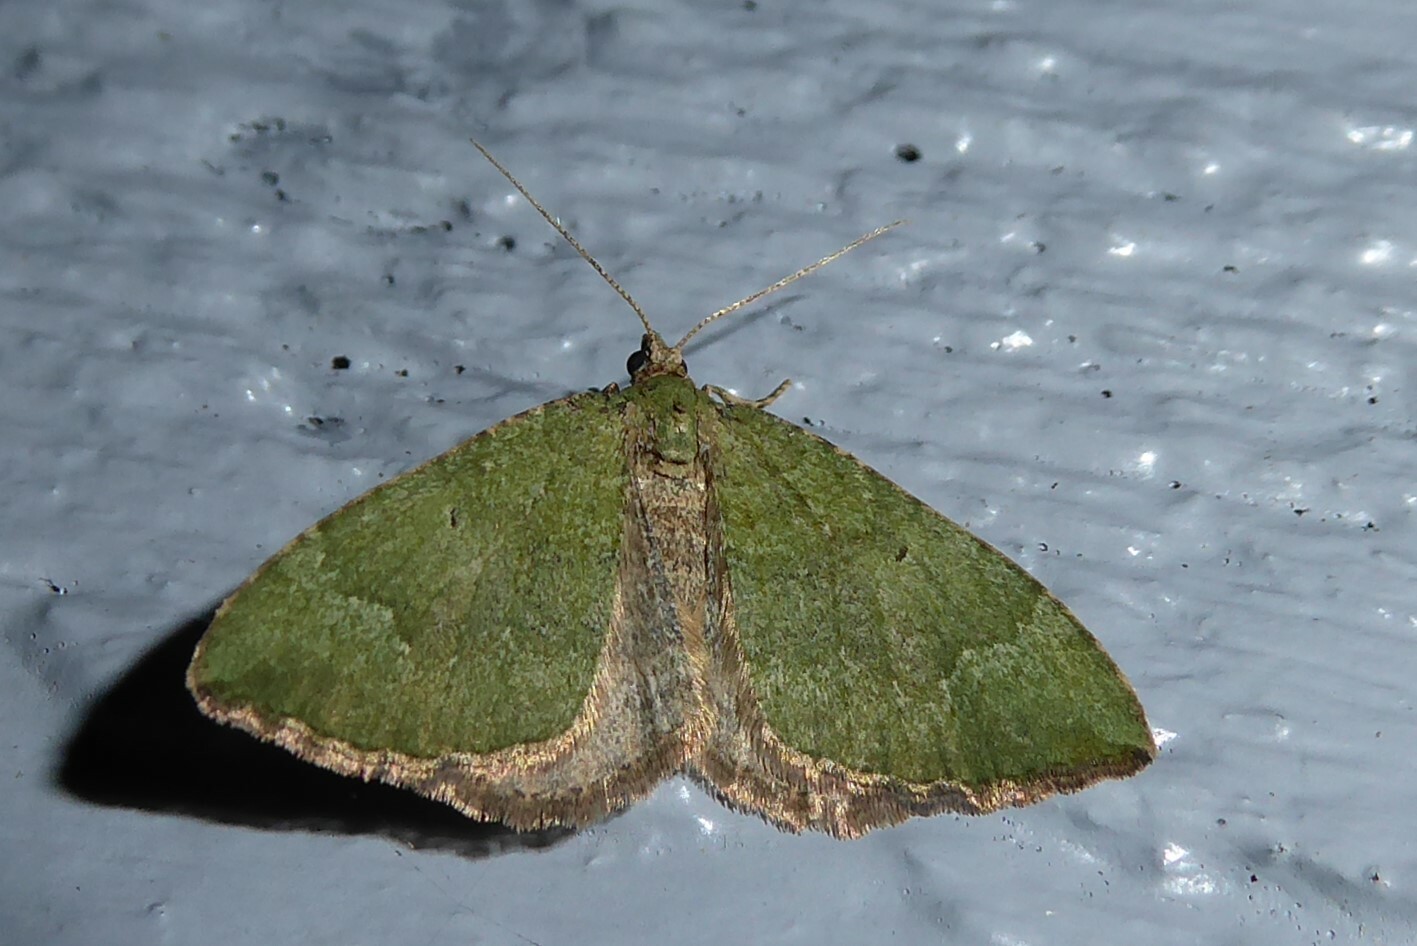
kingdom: Animalia
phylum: Arthropoda
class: Insecta
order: Lepidoptera
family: Geometridae
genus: Epyaxa
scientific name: Epyaxa rosearia
